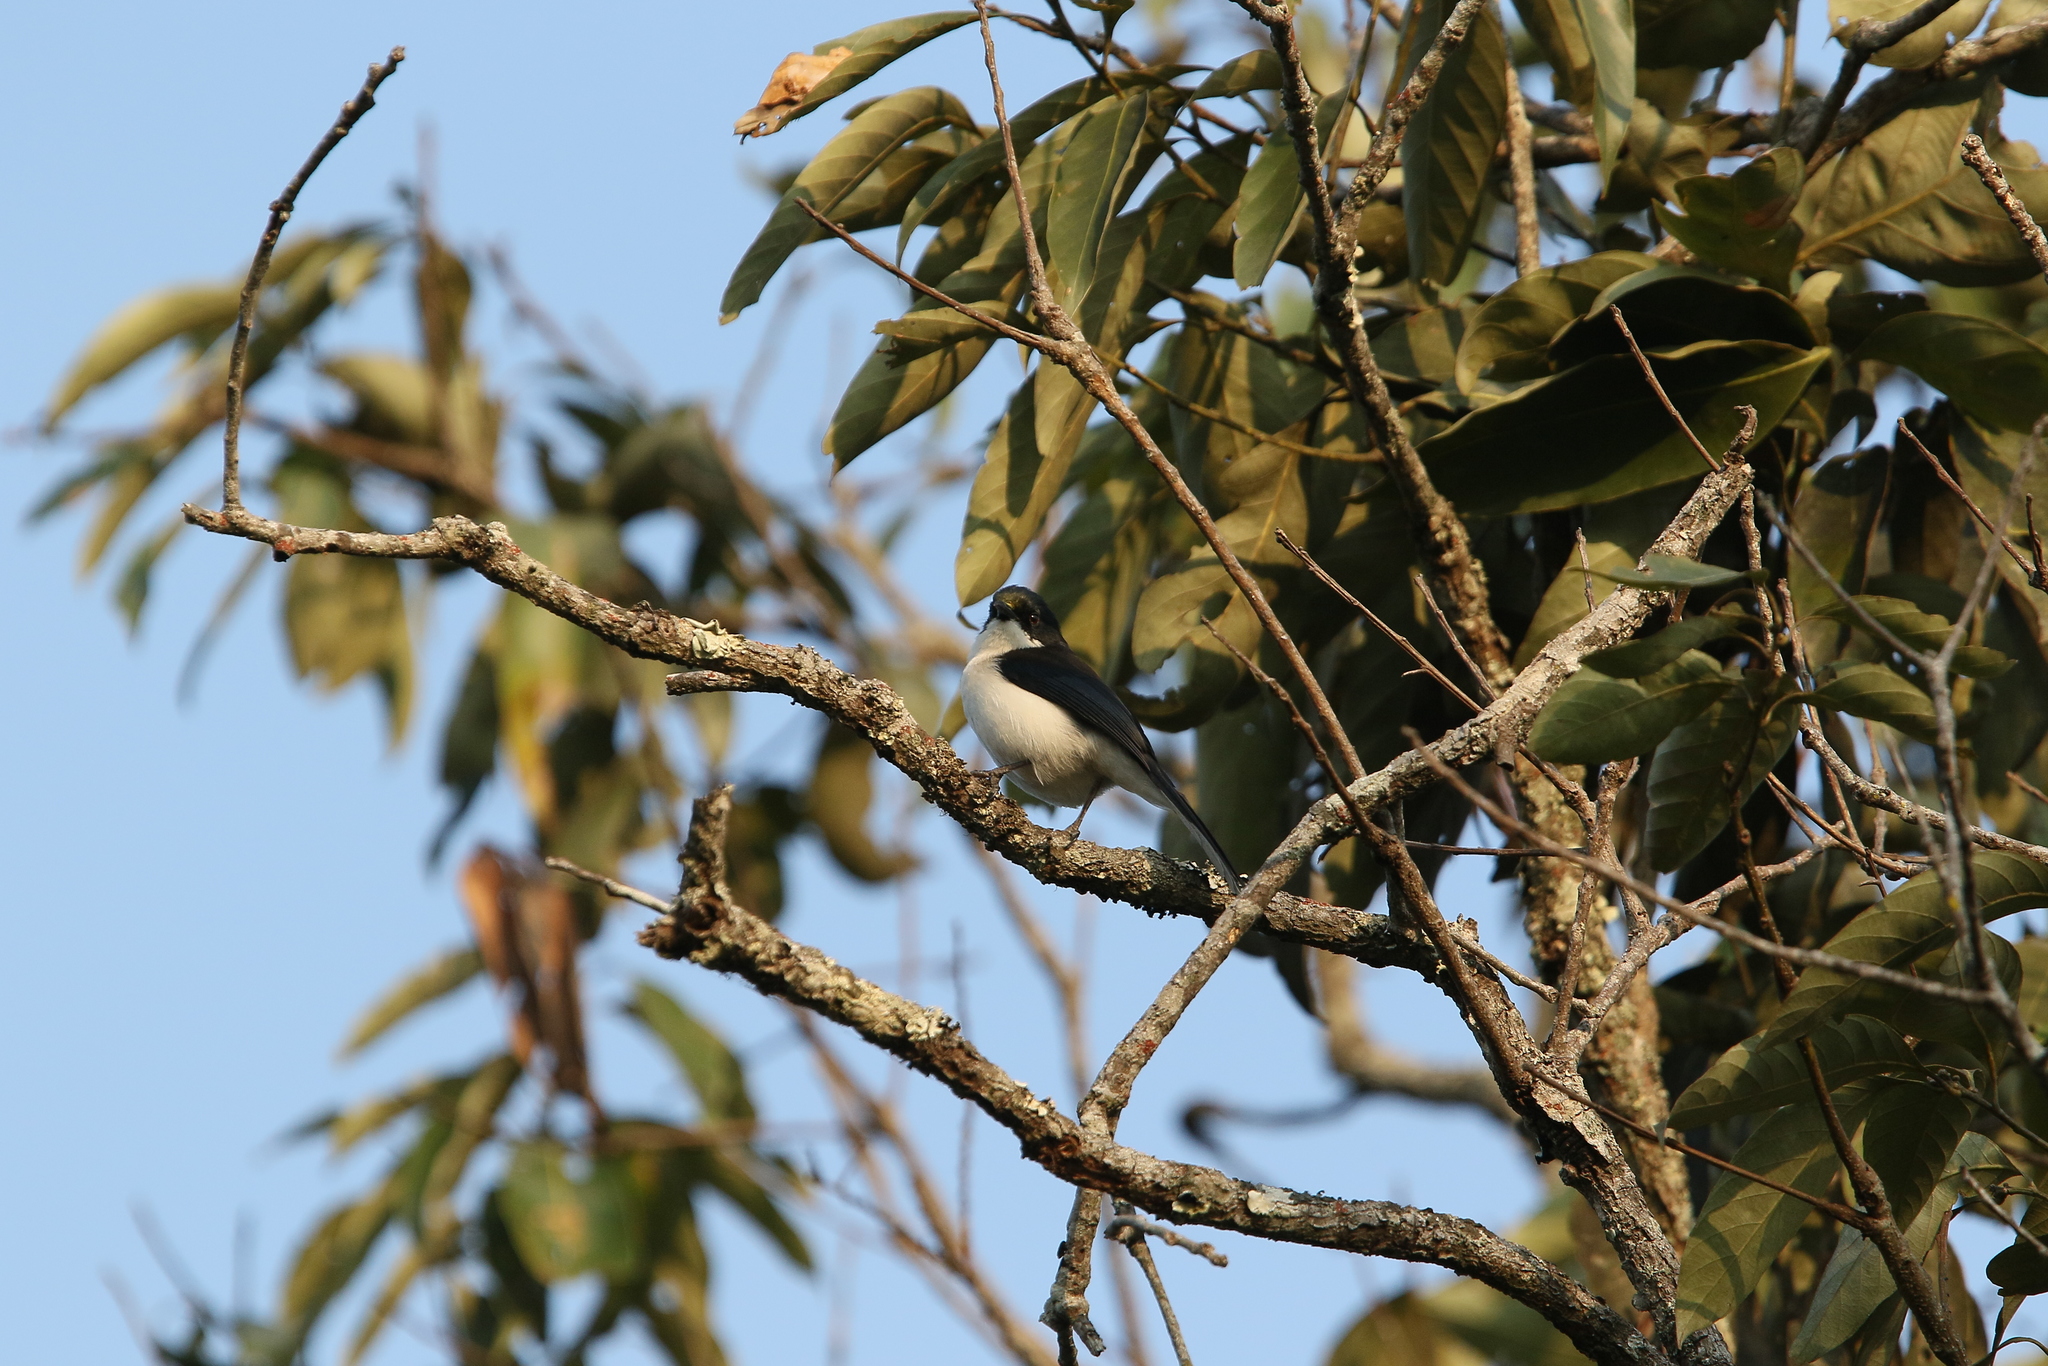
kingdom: Animalia
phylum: Chordata
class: Aves
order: Passeriformes
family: Leiothrichidae
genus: Heterophasia
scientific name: Heterophasia melanoleuca
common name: Dark-backed sibia
